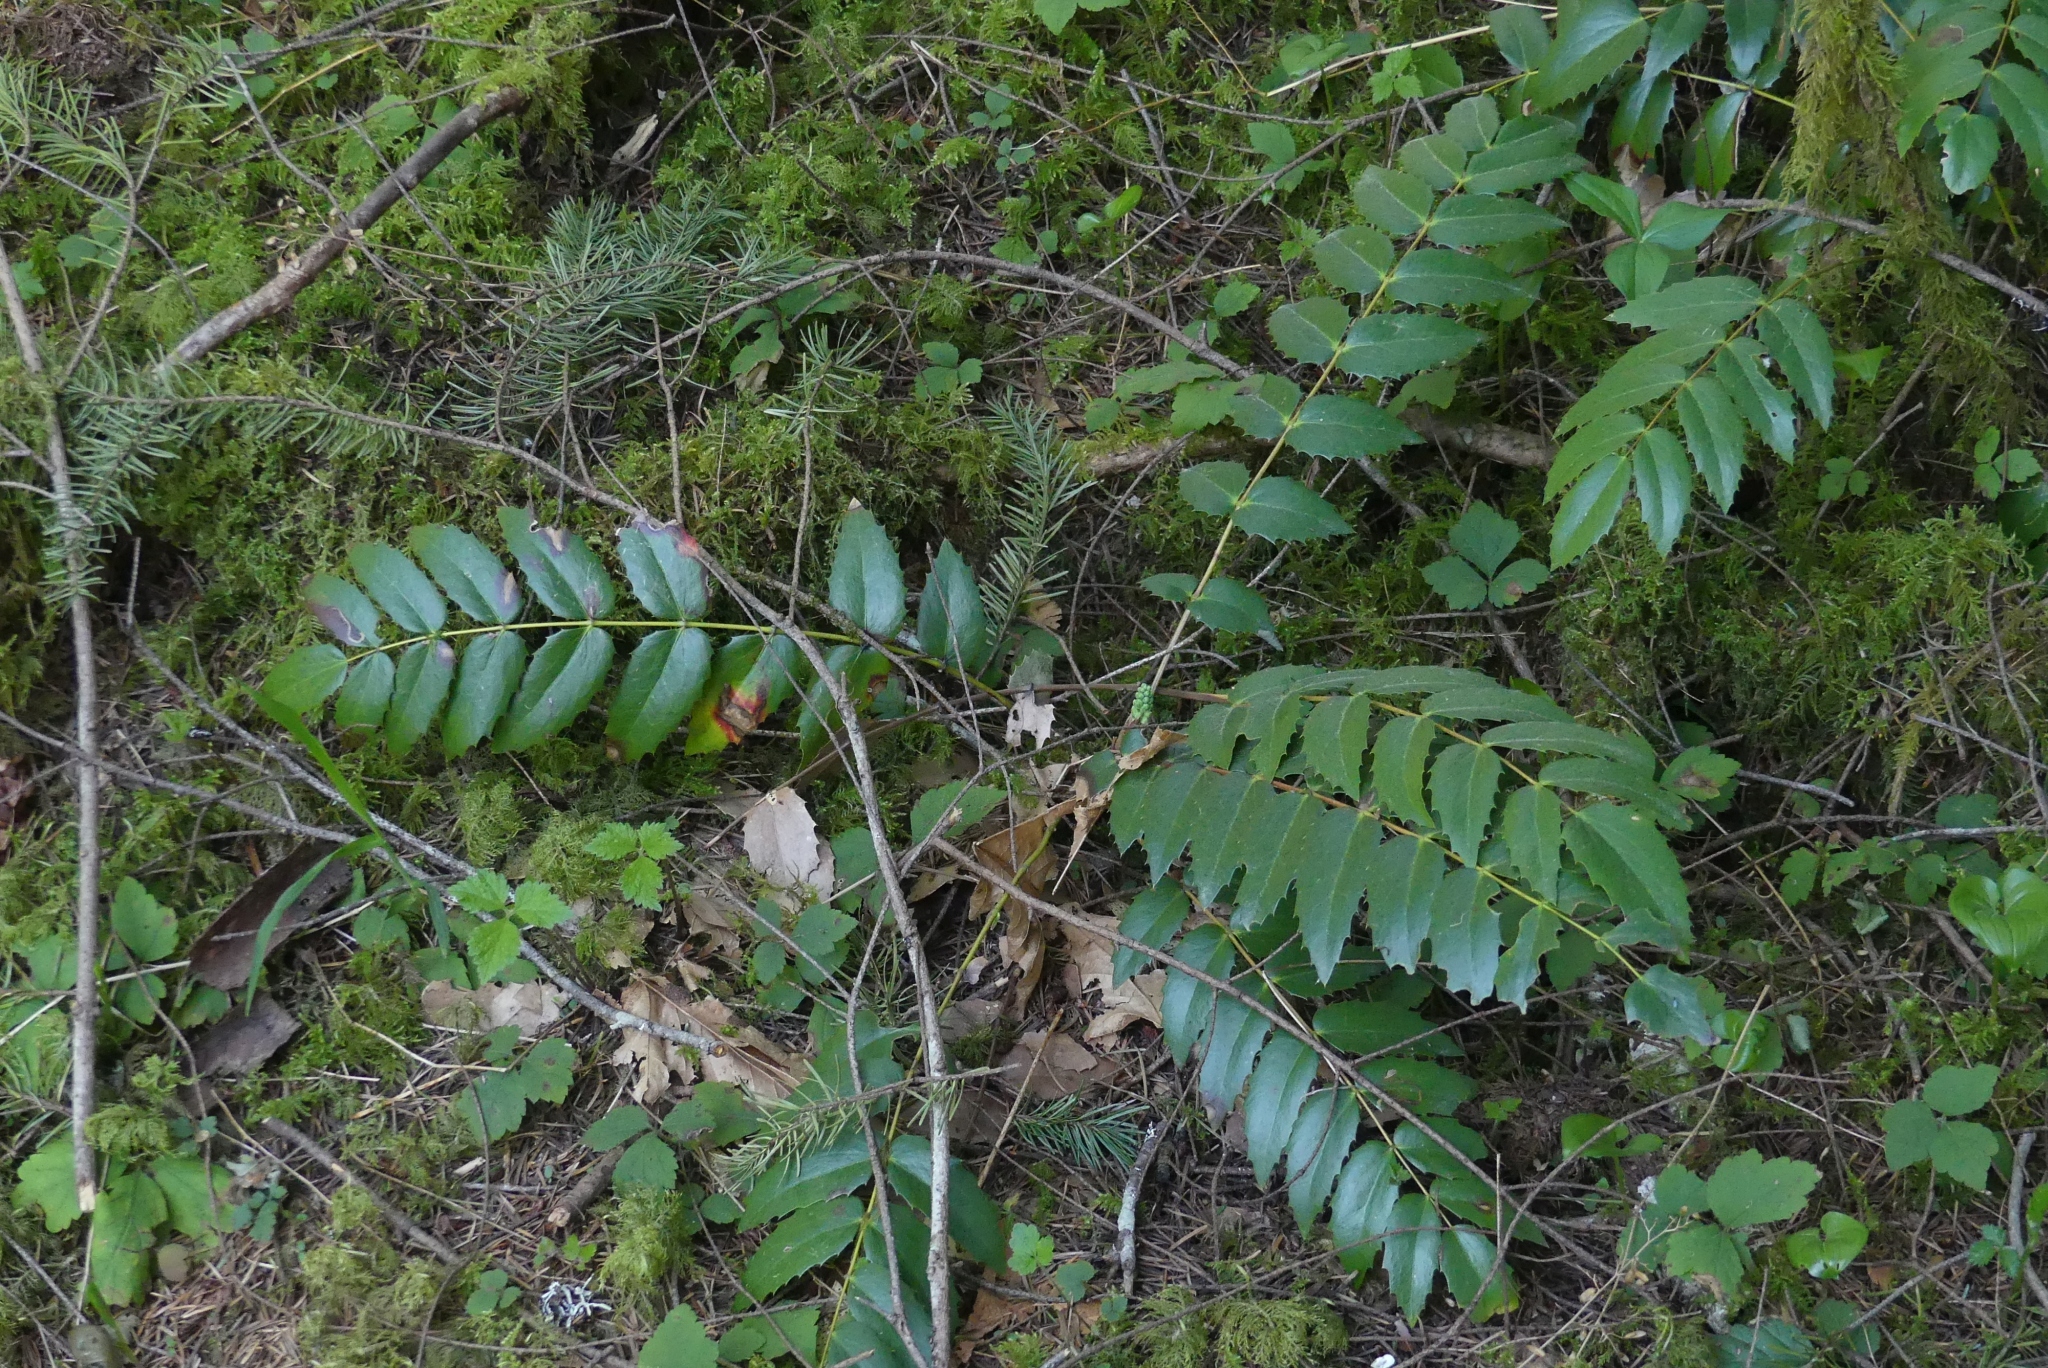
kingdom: Plantae
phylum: Tracheophyta
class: Magnoliopsida
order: Ranunculales
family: Berberidaceae
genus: Mahonia
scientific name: Mahonia nervosa
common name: Cascade oregon-grape
